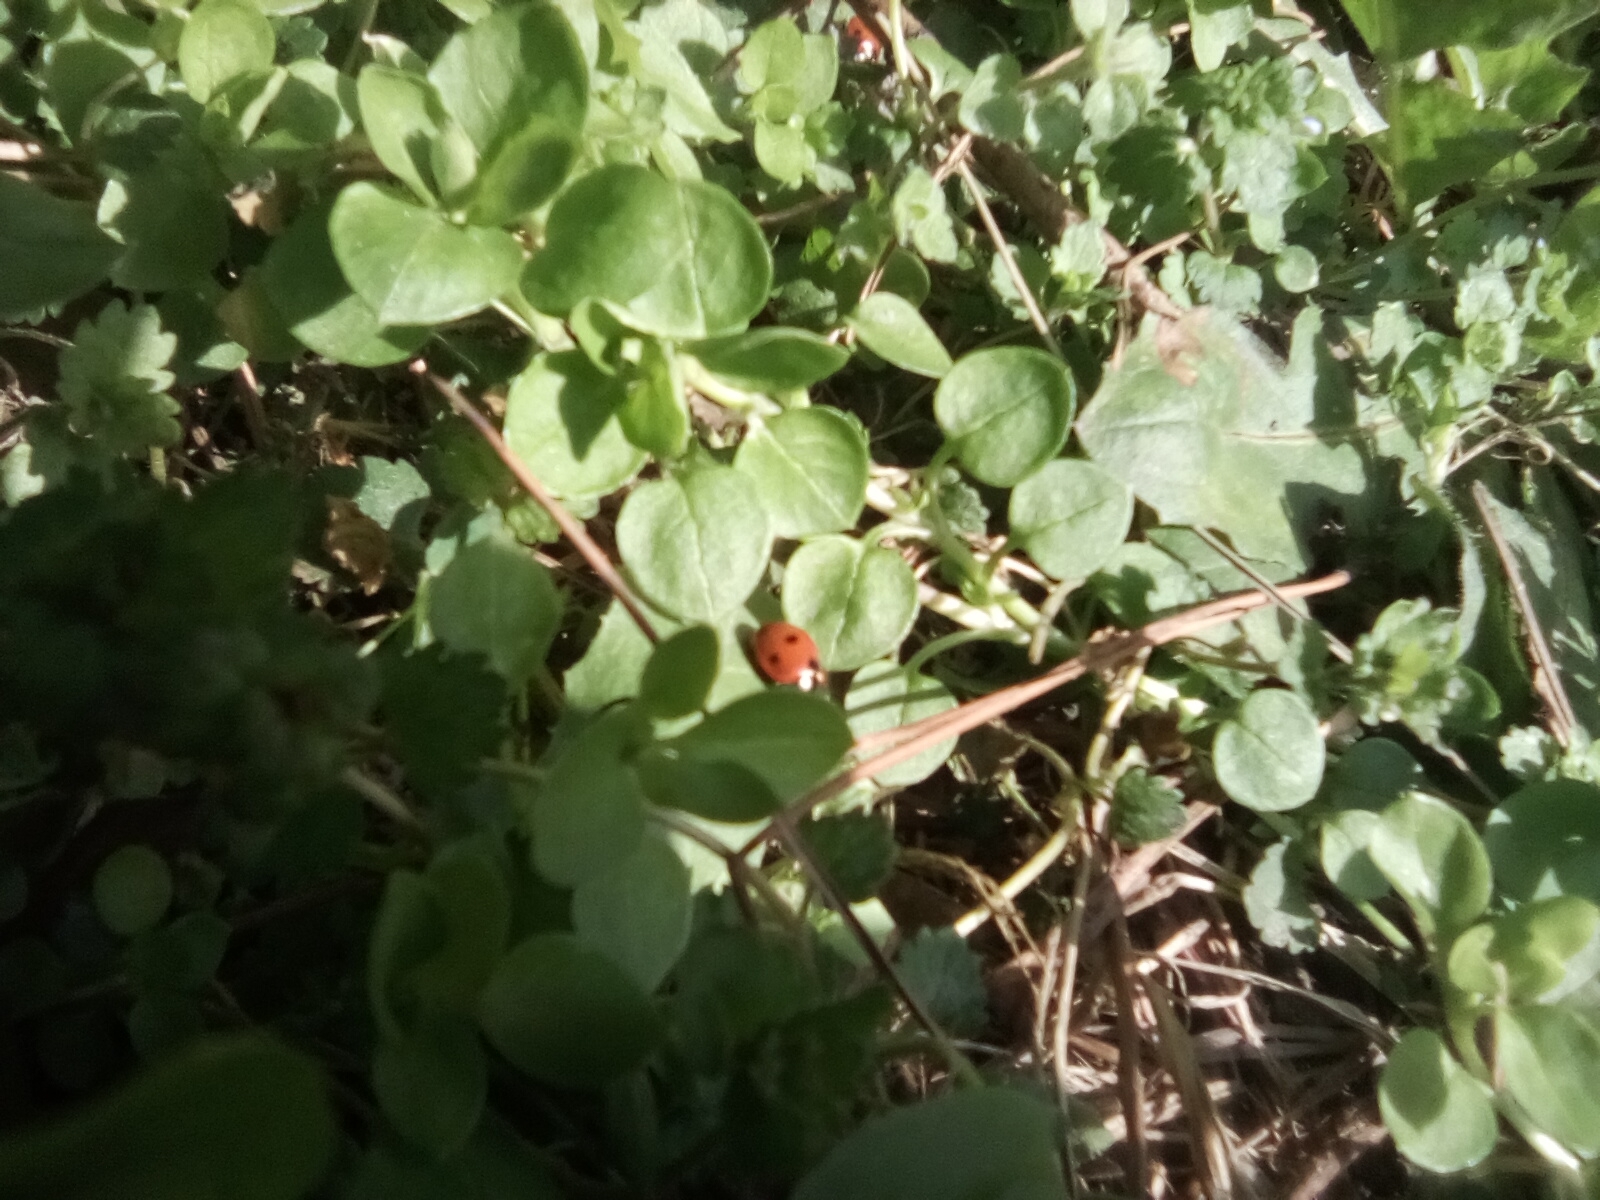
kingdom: Animalia
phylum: Arthropoda
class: Insecta
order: Coleoptera
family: Coccinellidae
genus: Coccinella
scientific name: Coccinella septempunctata
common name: Sevenspotted lady beetle
